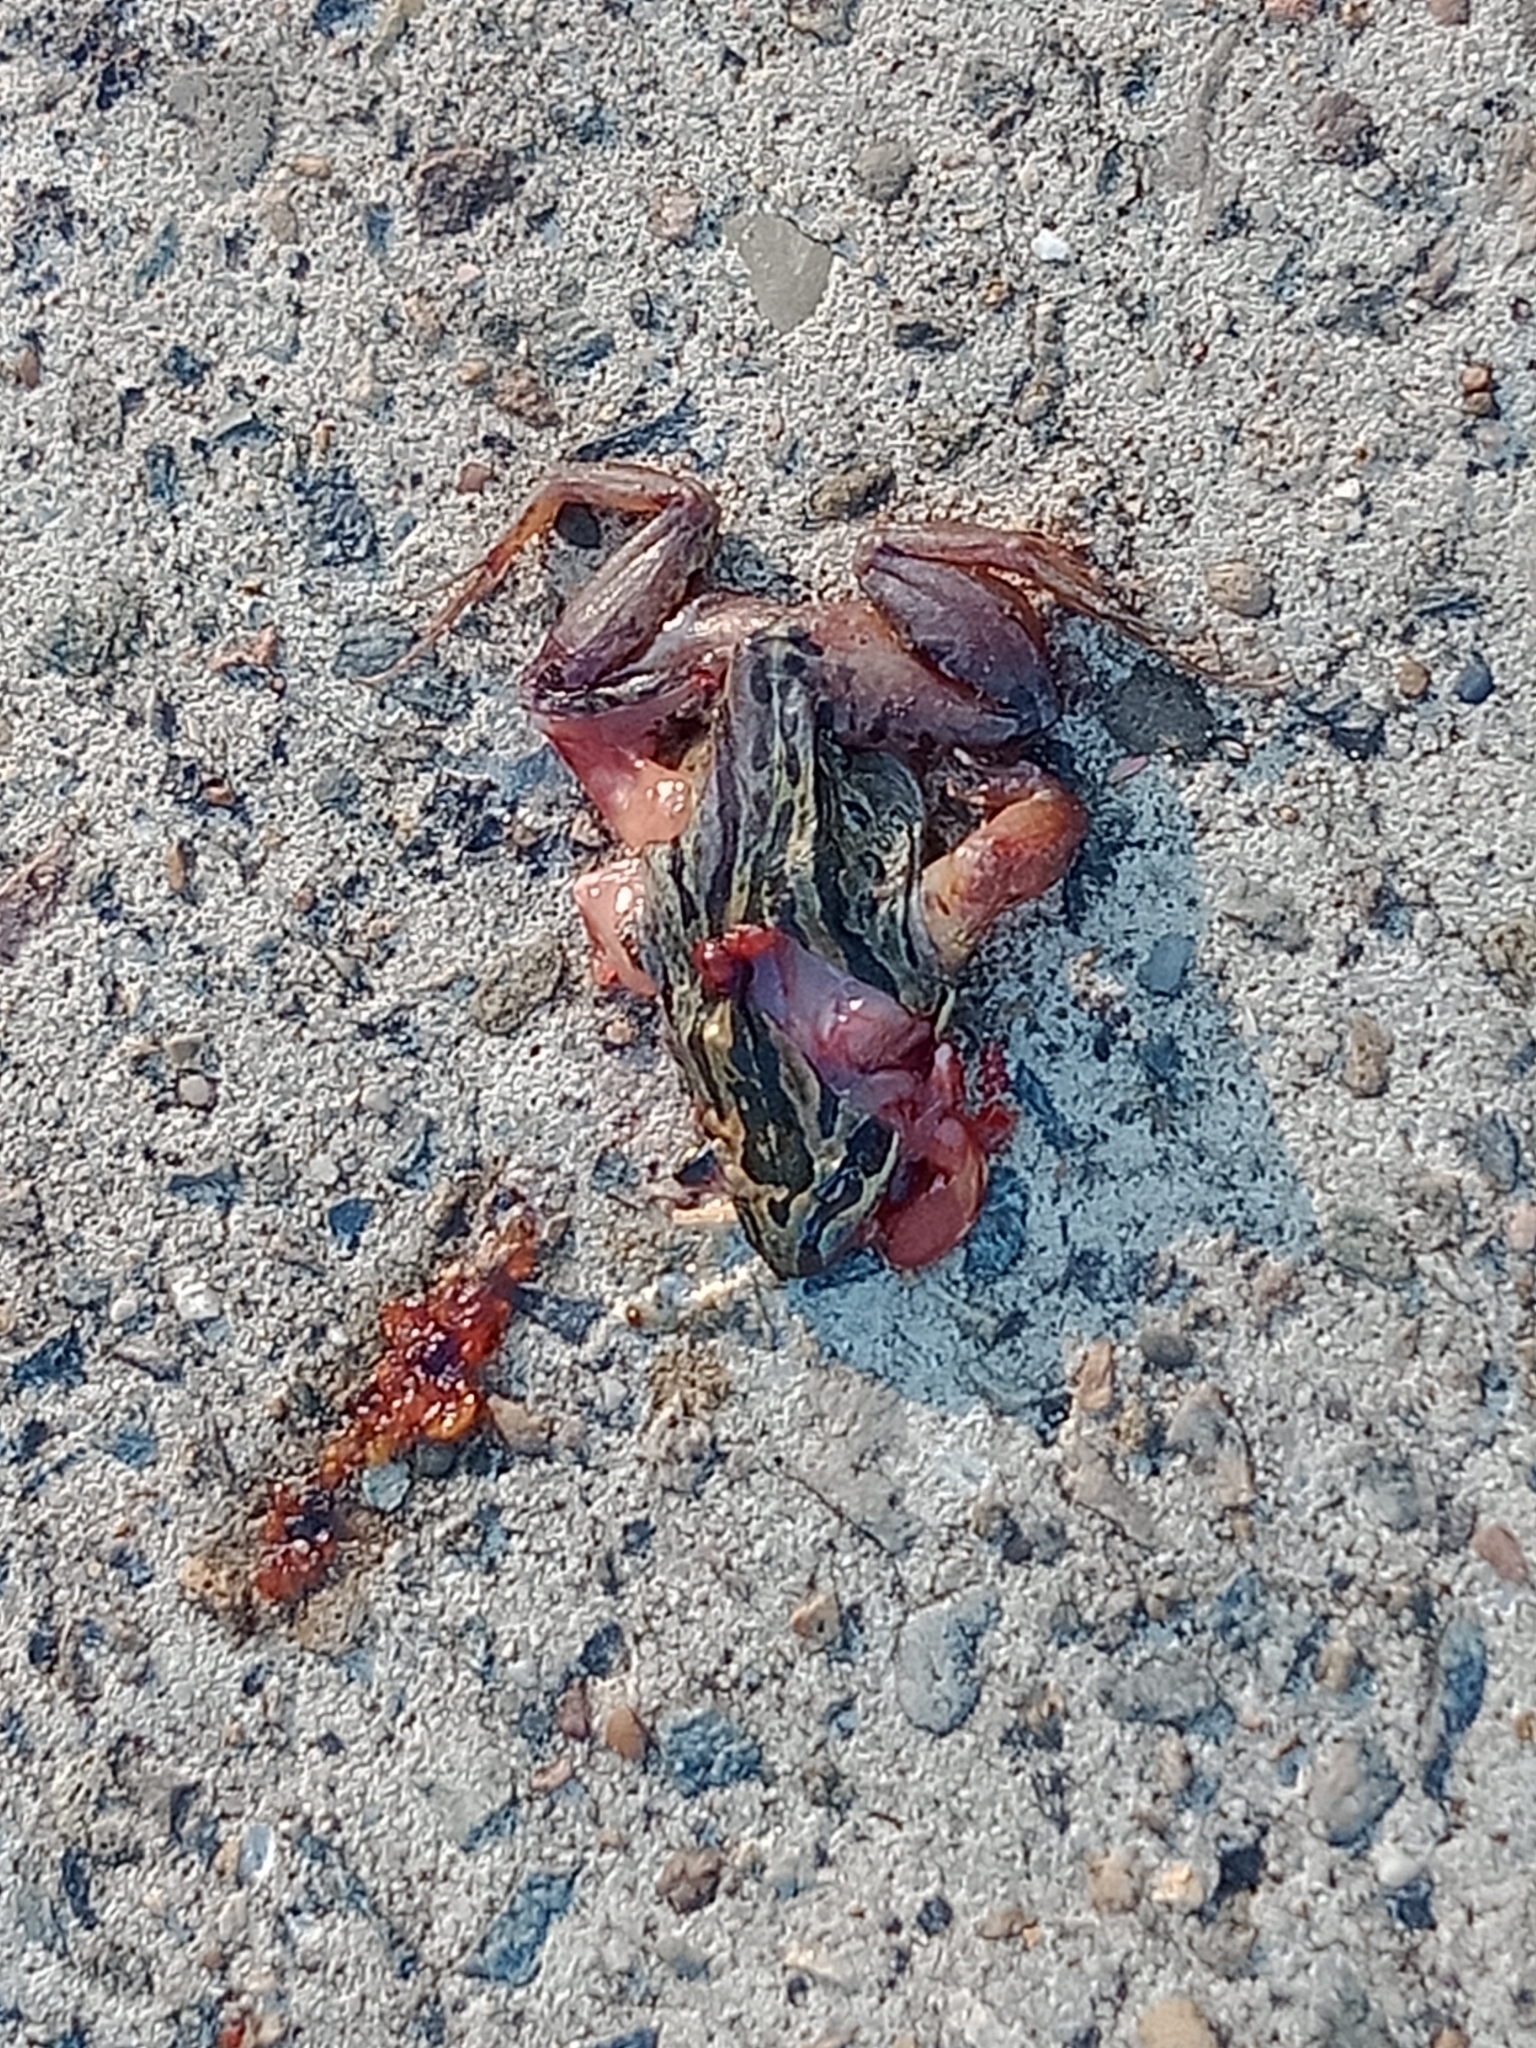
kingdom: Animalia
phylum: Chordata
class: Amphibia
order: Anura
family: Limnodynastidae
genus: Limnodynastes
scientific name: Limnodynastes peronii
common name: Brown frog
